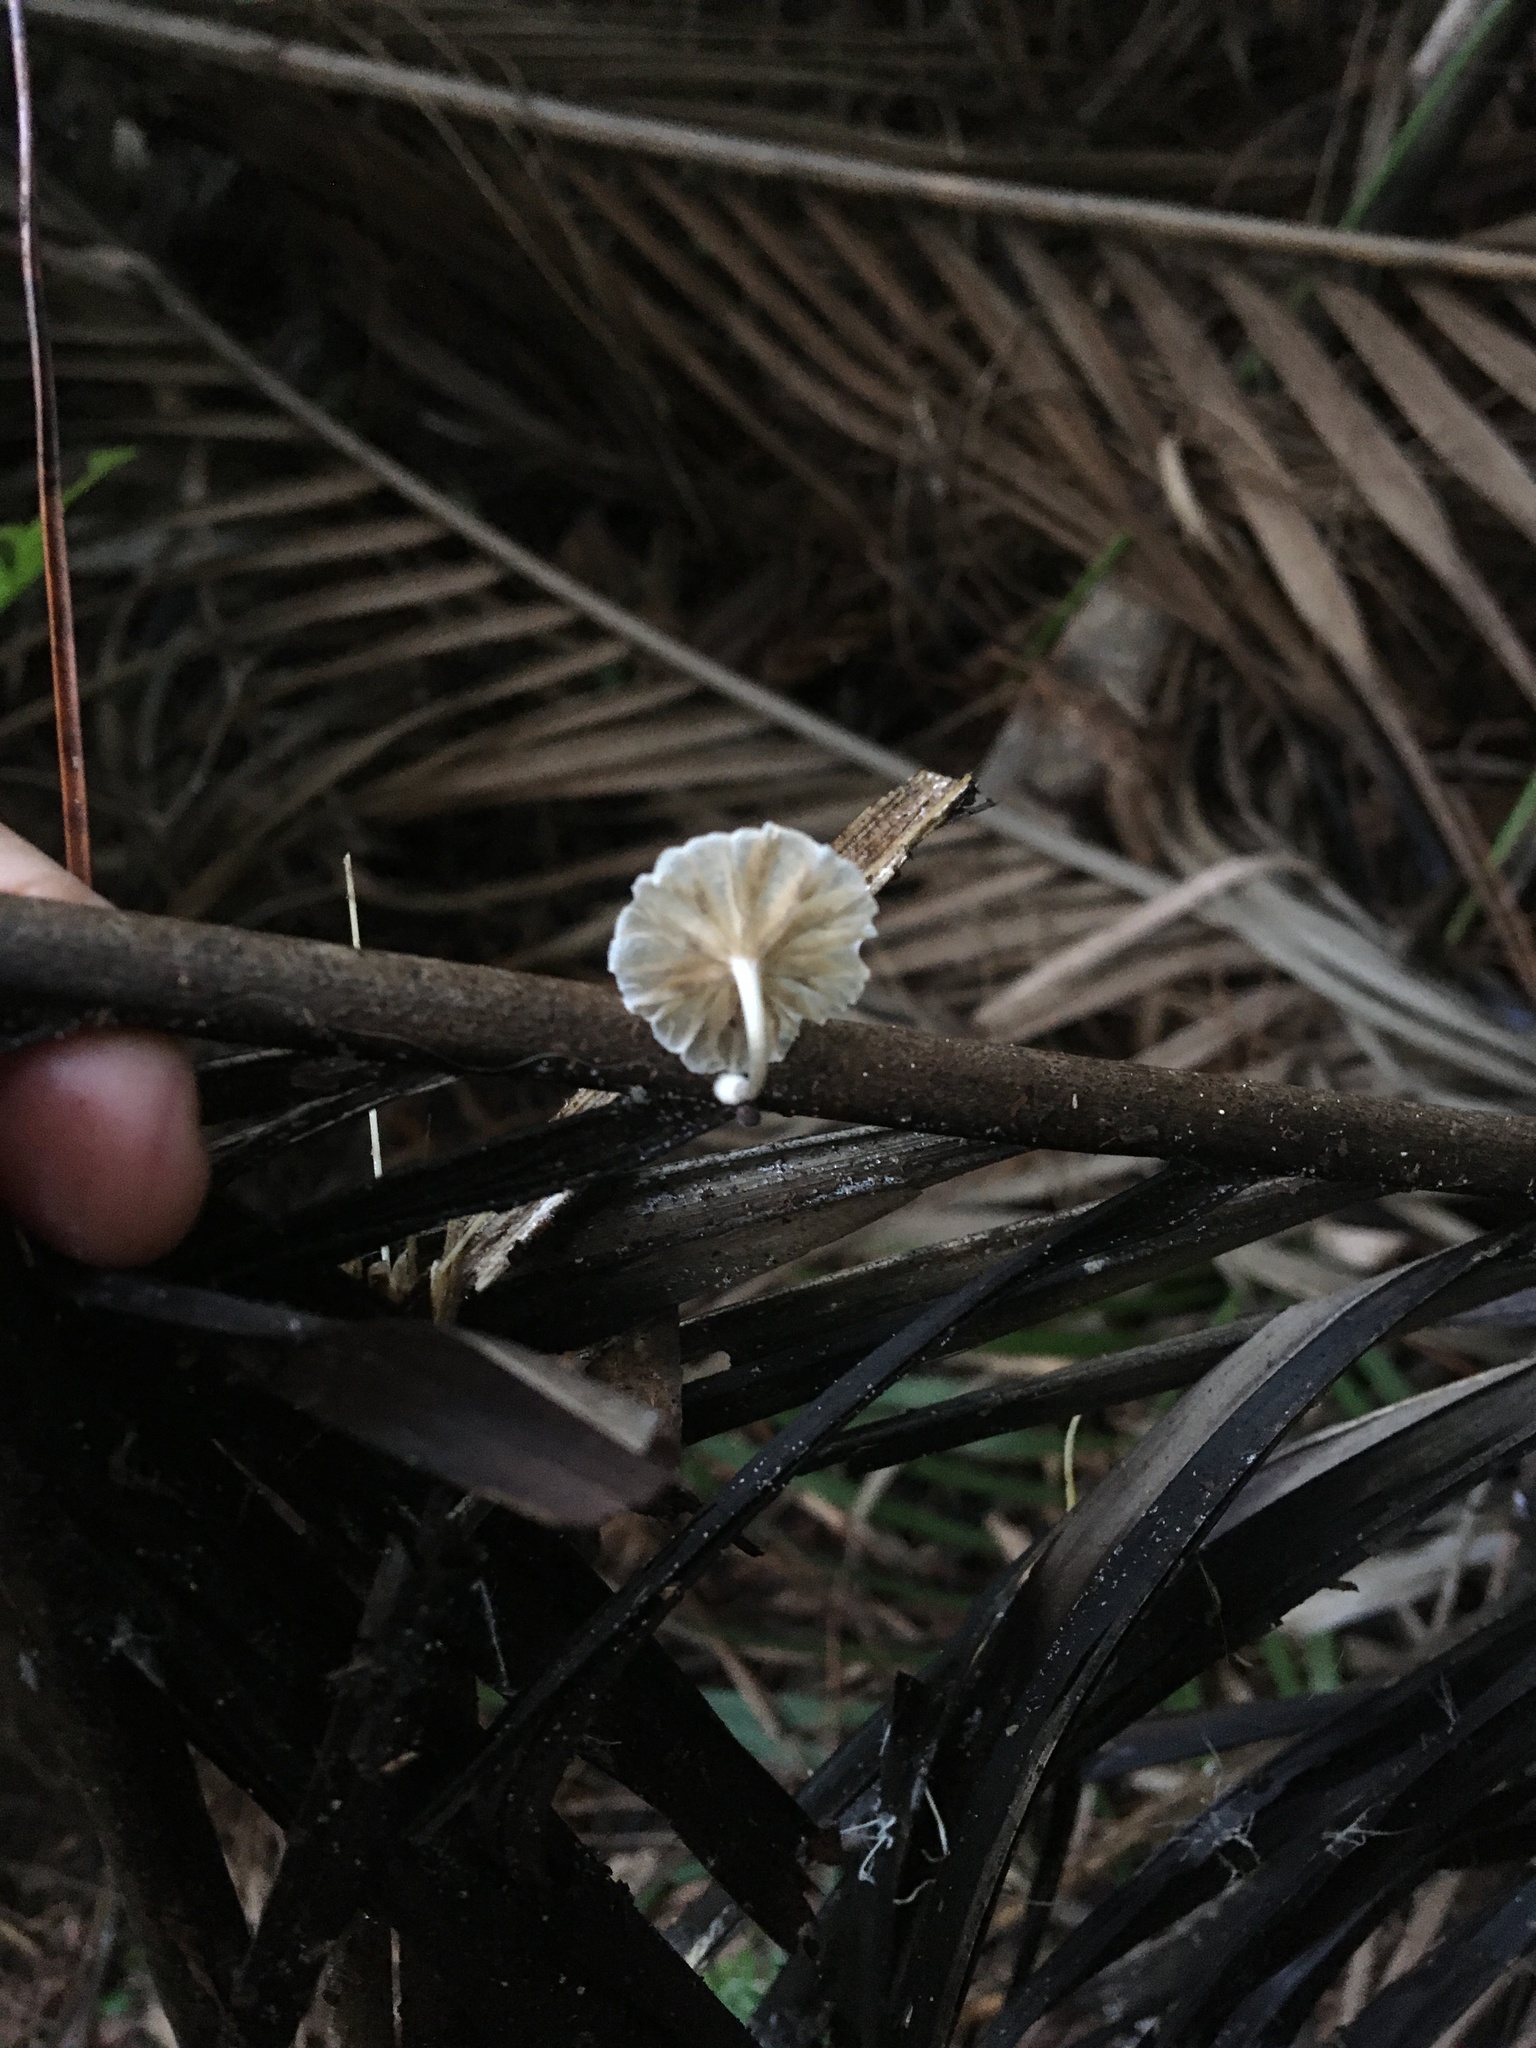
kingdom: Fungi
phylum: Basidiomycota
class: Agaricomycetes
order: Agaricales
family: Omphalotaceae
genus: Marasmiellus
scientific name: Marasmiellus candidus
